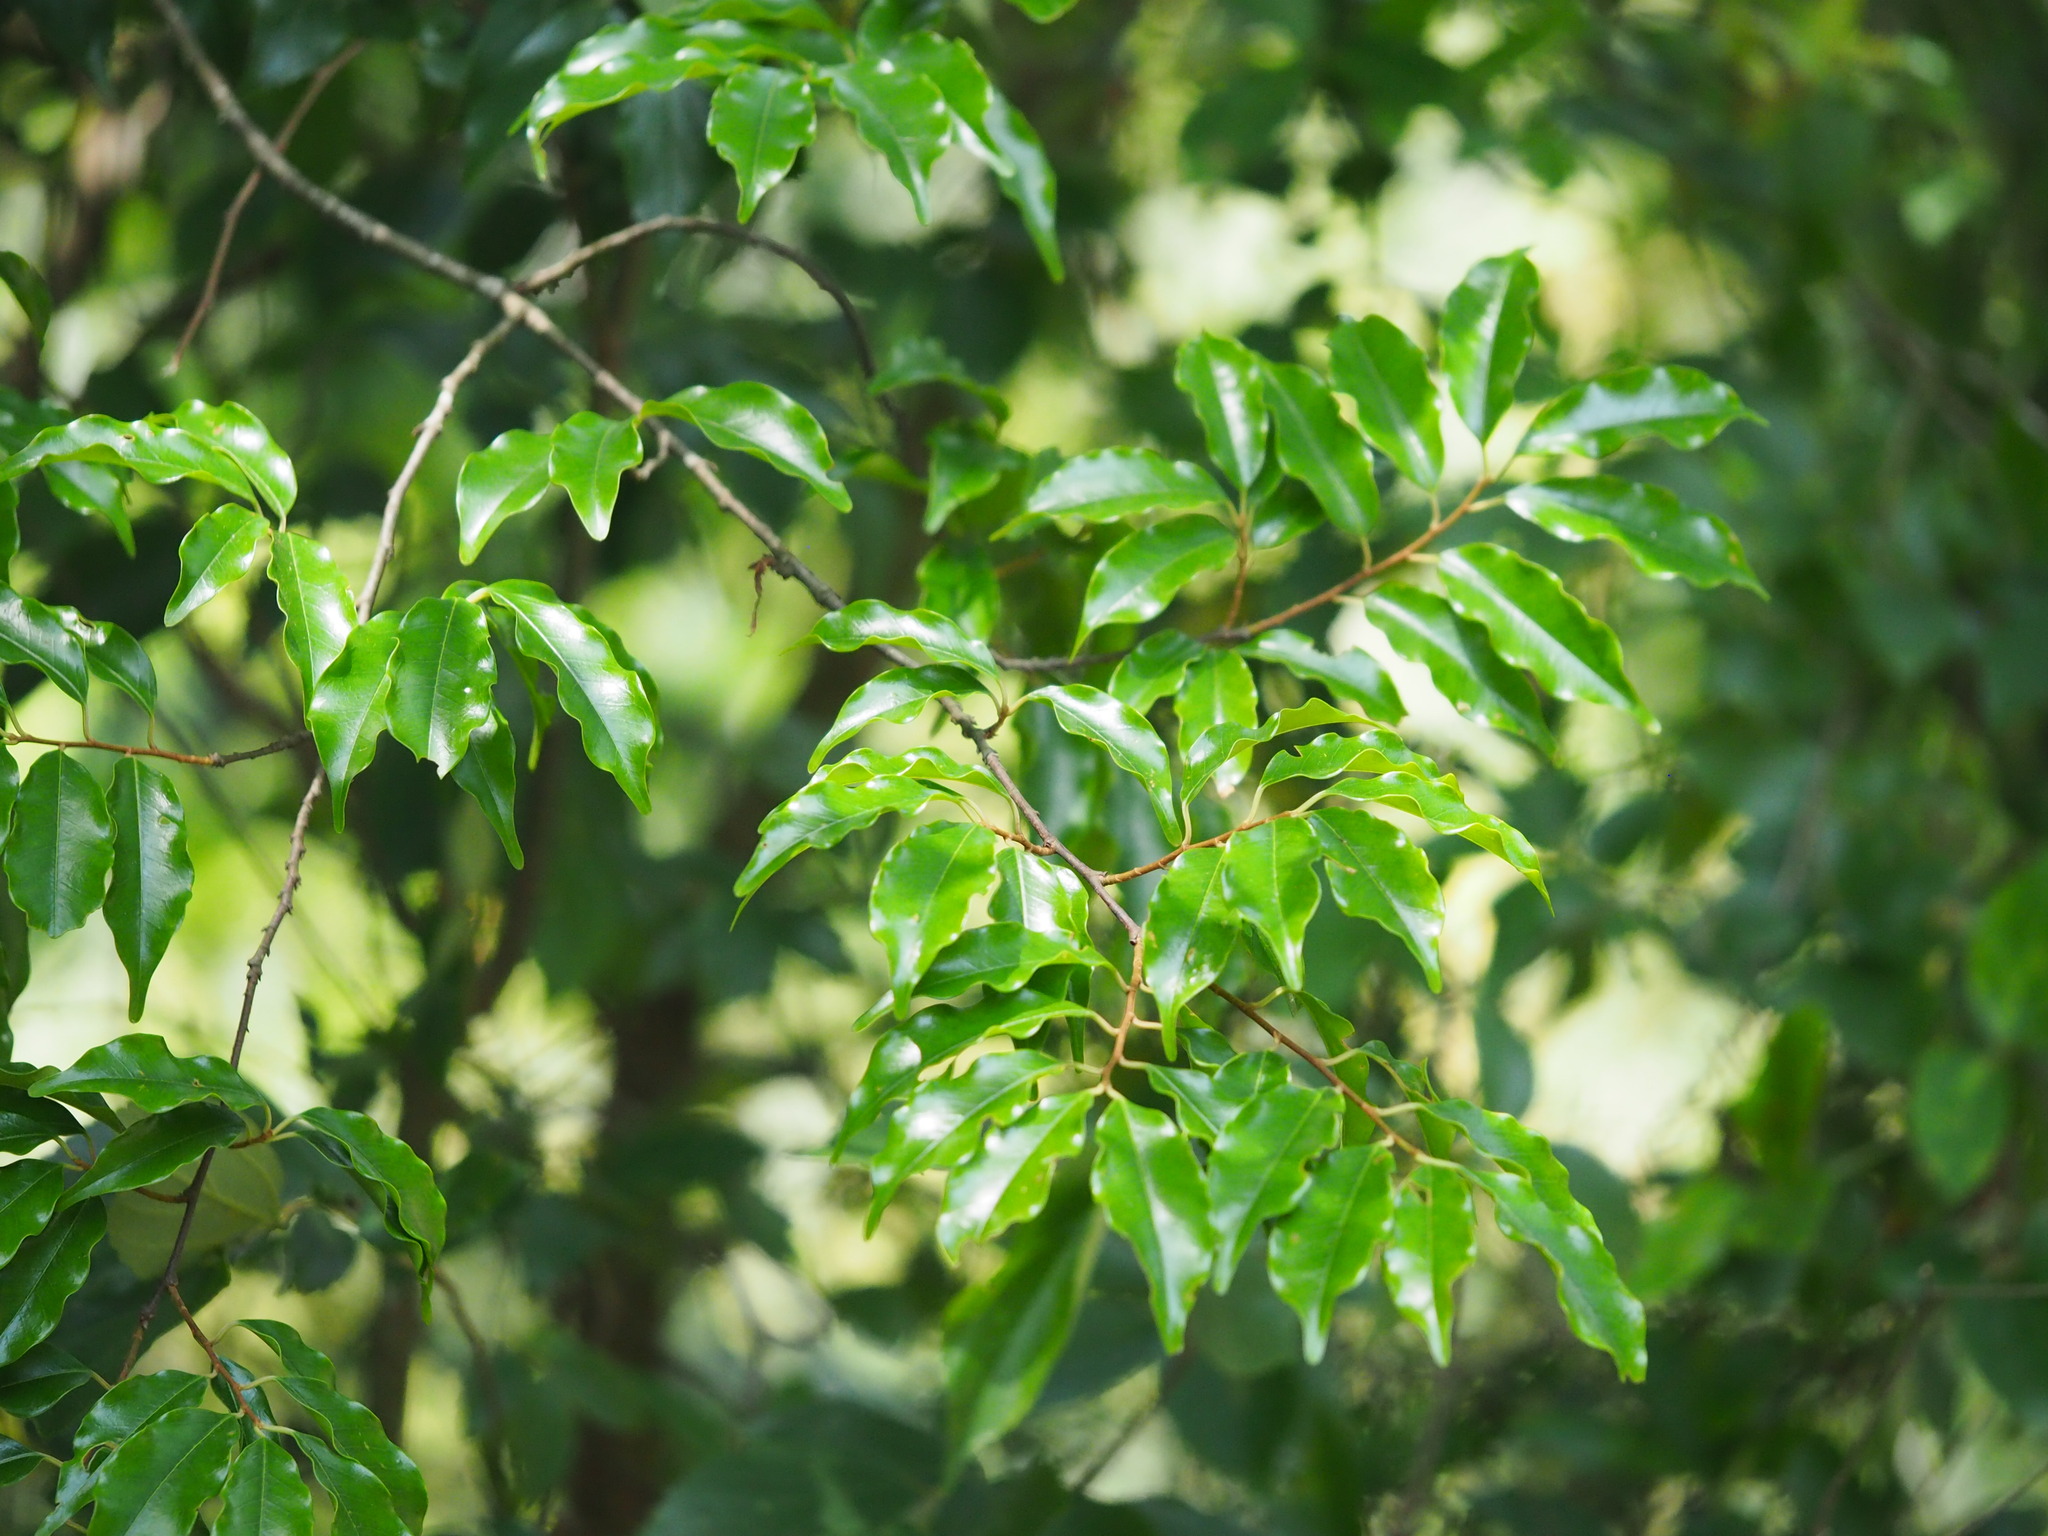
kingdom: Plantae
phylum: Tracheophyta
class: Magnoliopsida
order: Rosales
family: Rosaceae
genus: Prunus
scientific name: Prunus phaeosticta
